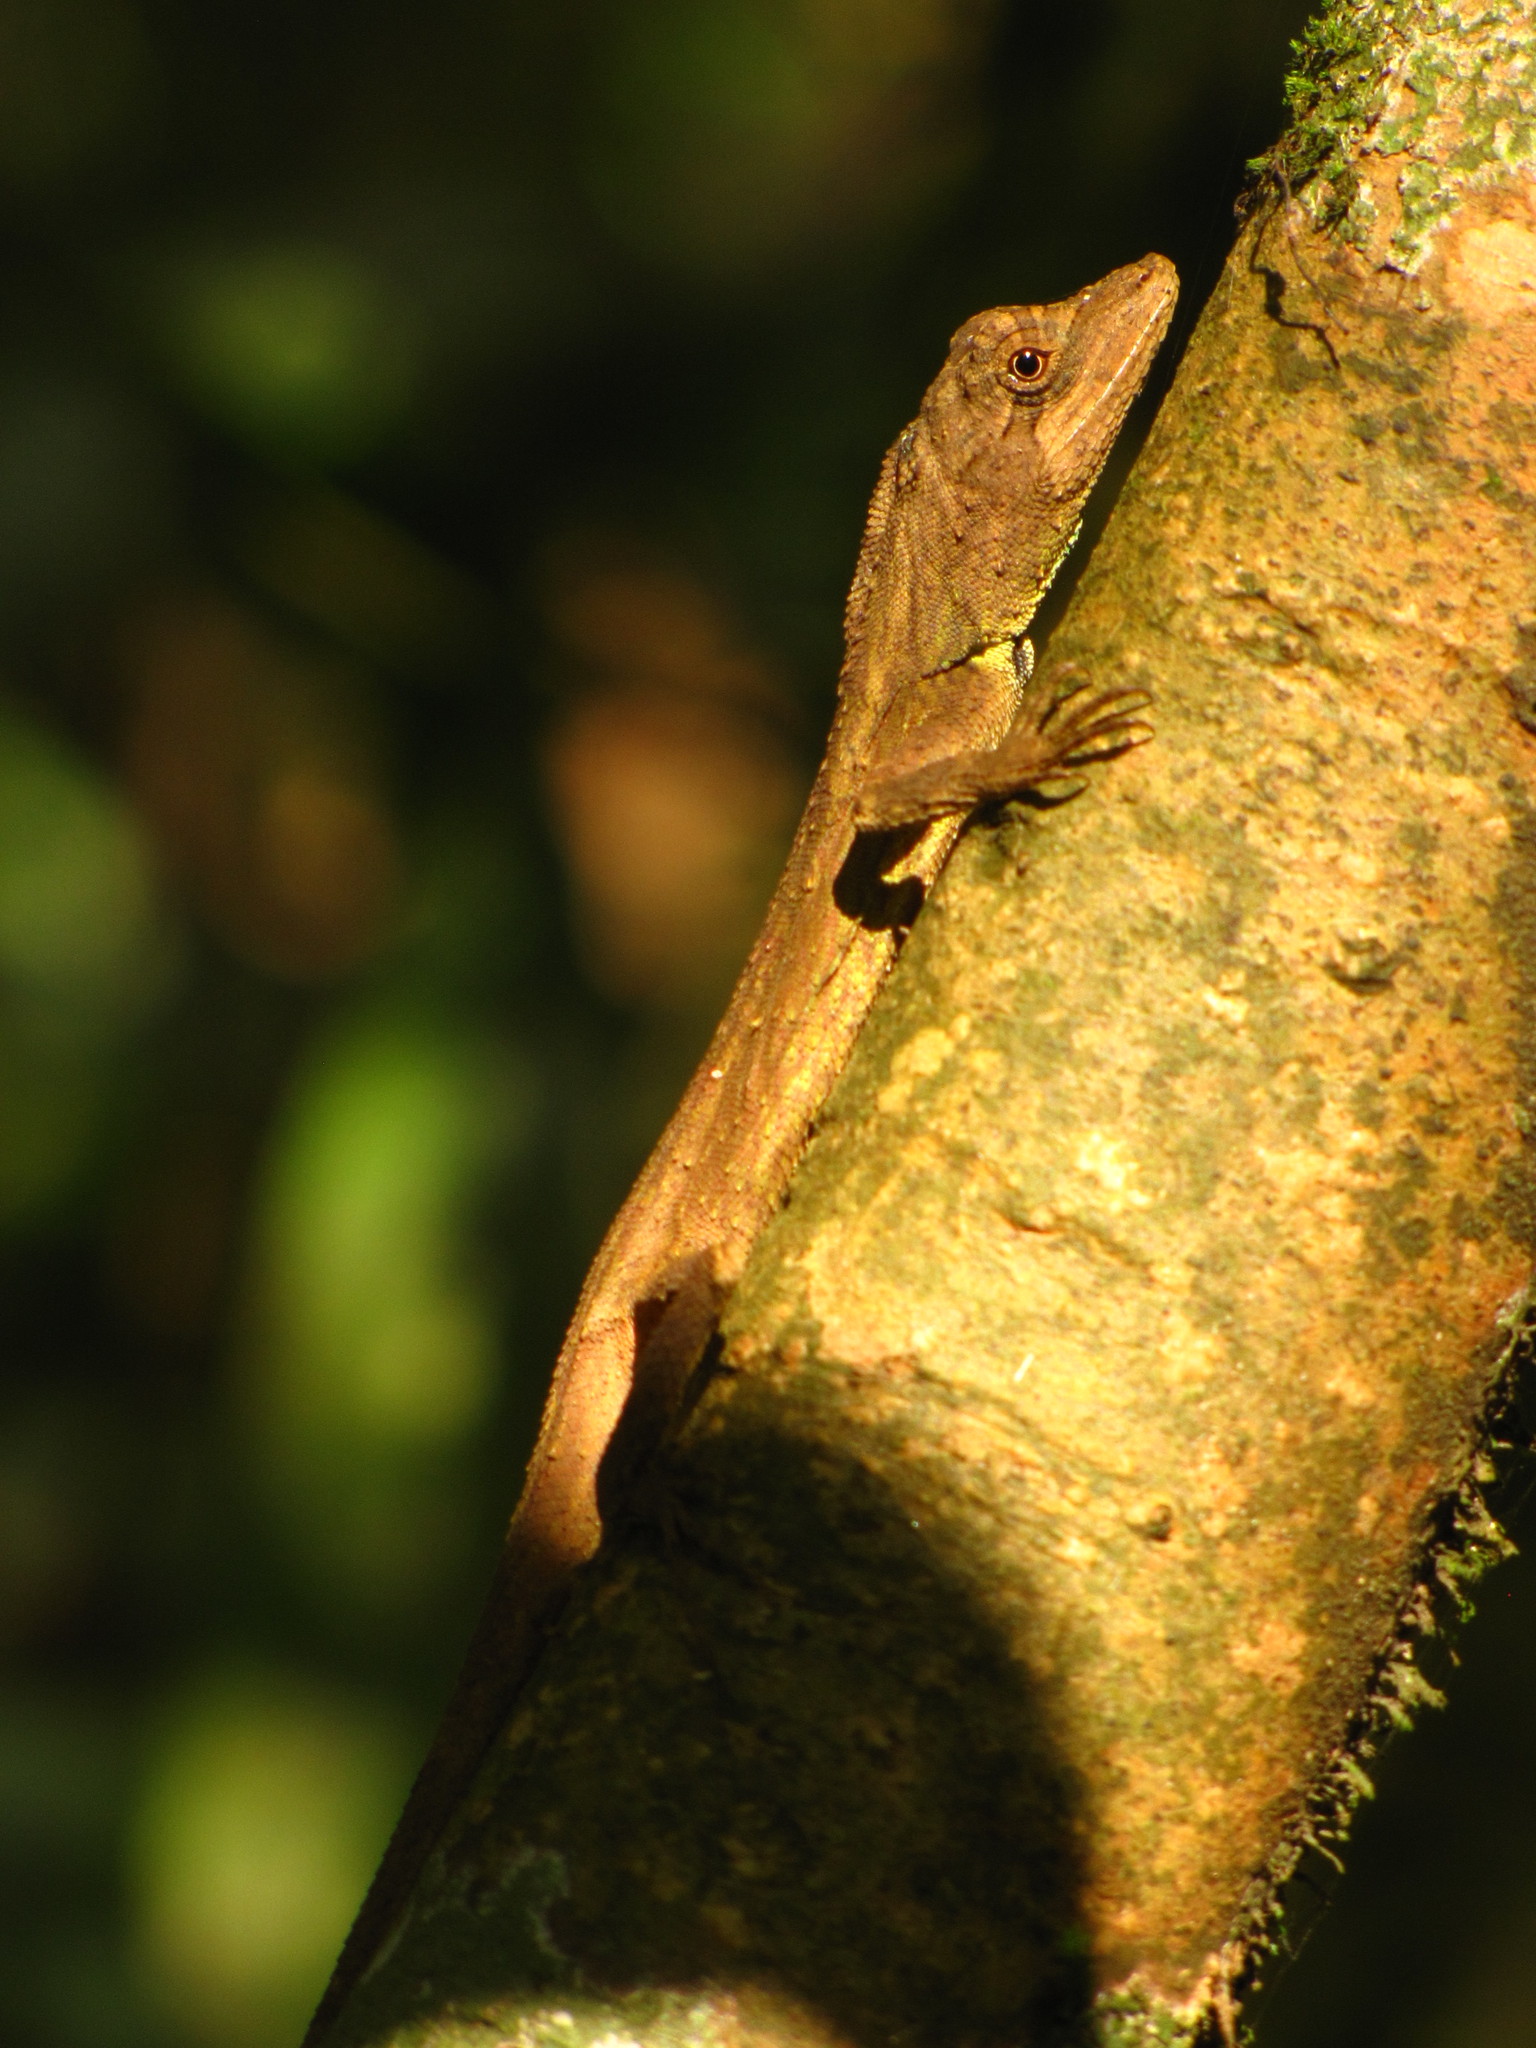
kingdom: Animalia
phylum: Chordata
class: Squamata
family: Agamidae
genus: Ptyctolaemus
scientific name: Ptyctolaemus gularis
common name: Green fan-throated lizard
